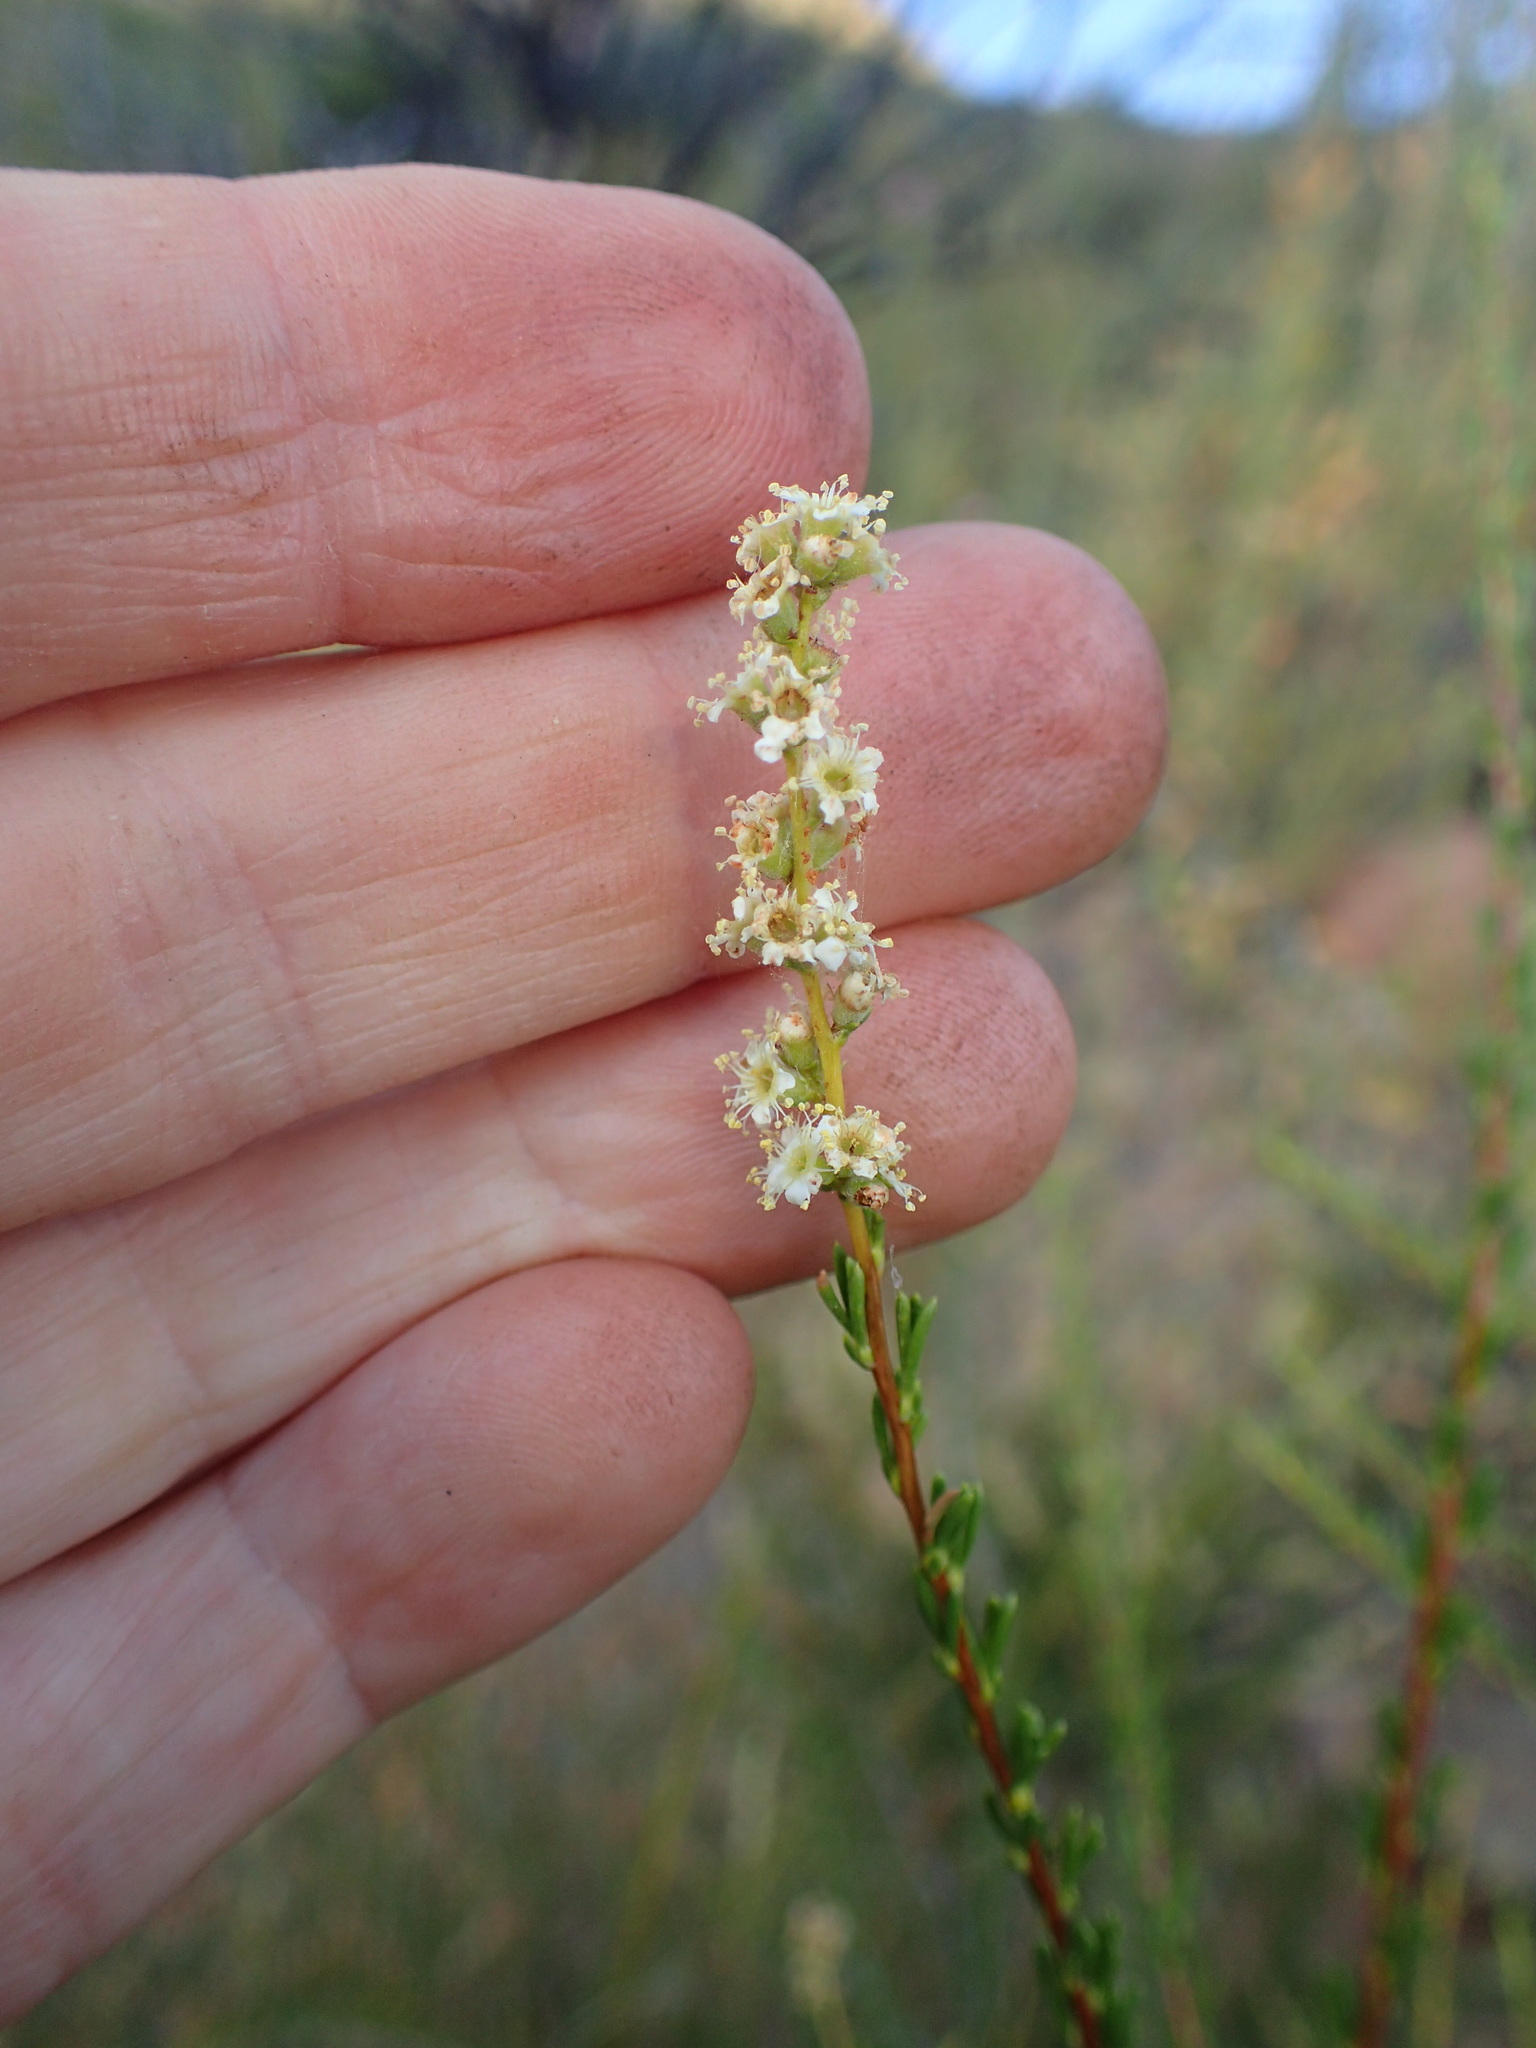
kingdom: Plantae
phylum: Tracheophyta
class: Magnoliopsida
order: Rosales
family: Rosaceae
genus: Adenostoma
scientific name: Adenostoma fasciculatum
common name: Chamise
